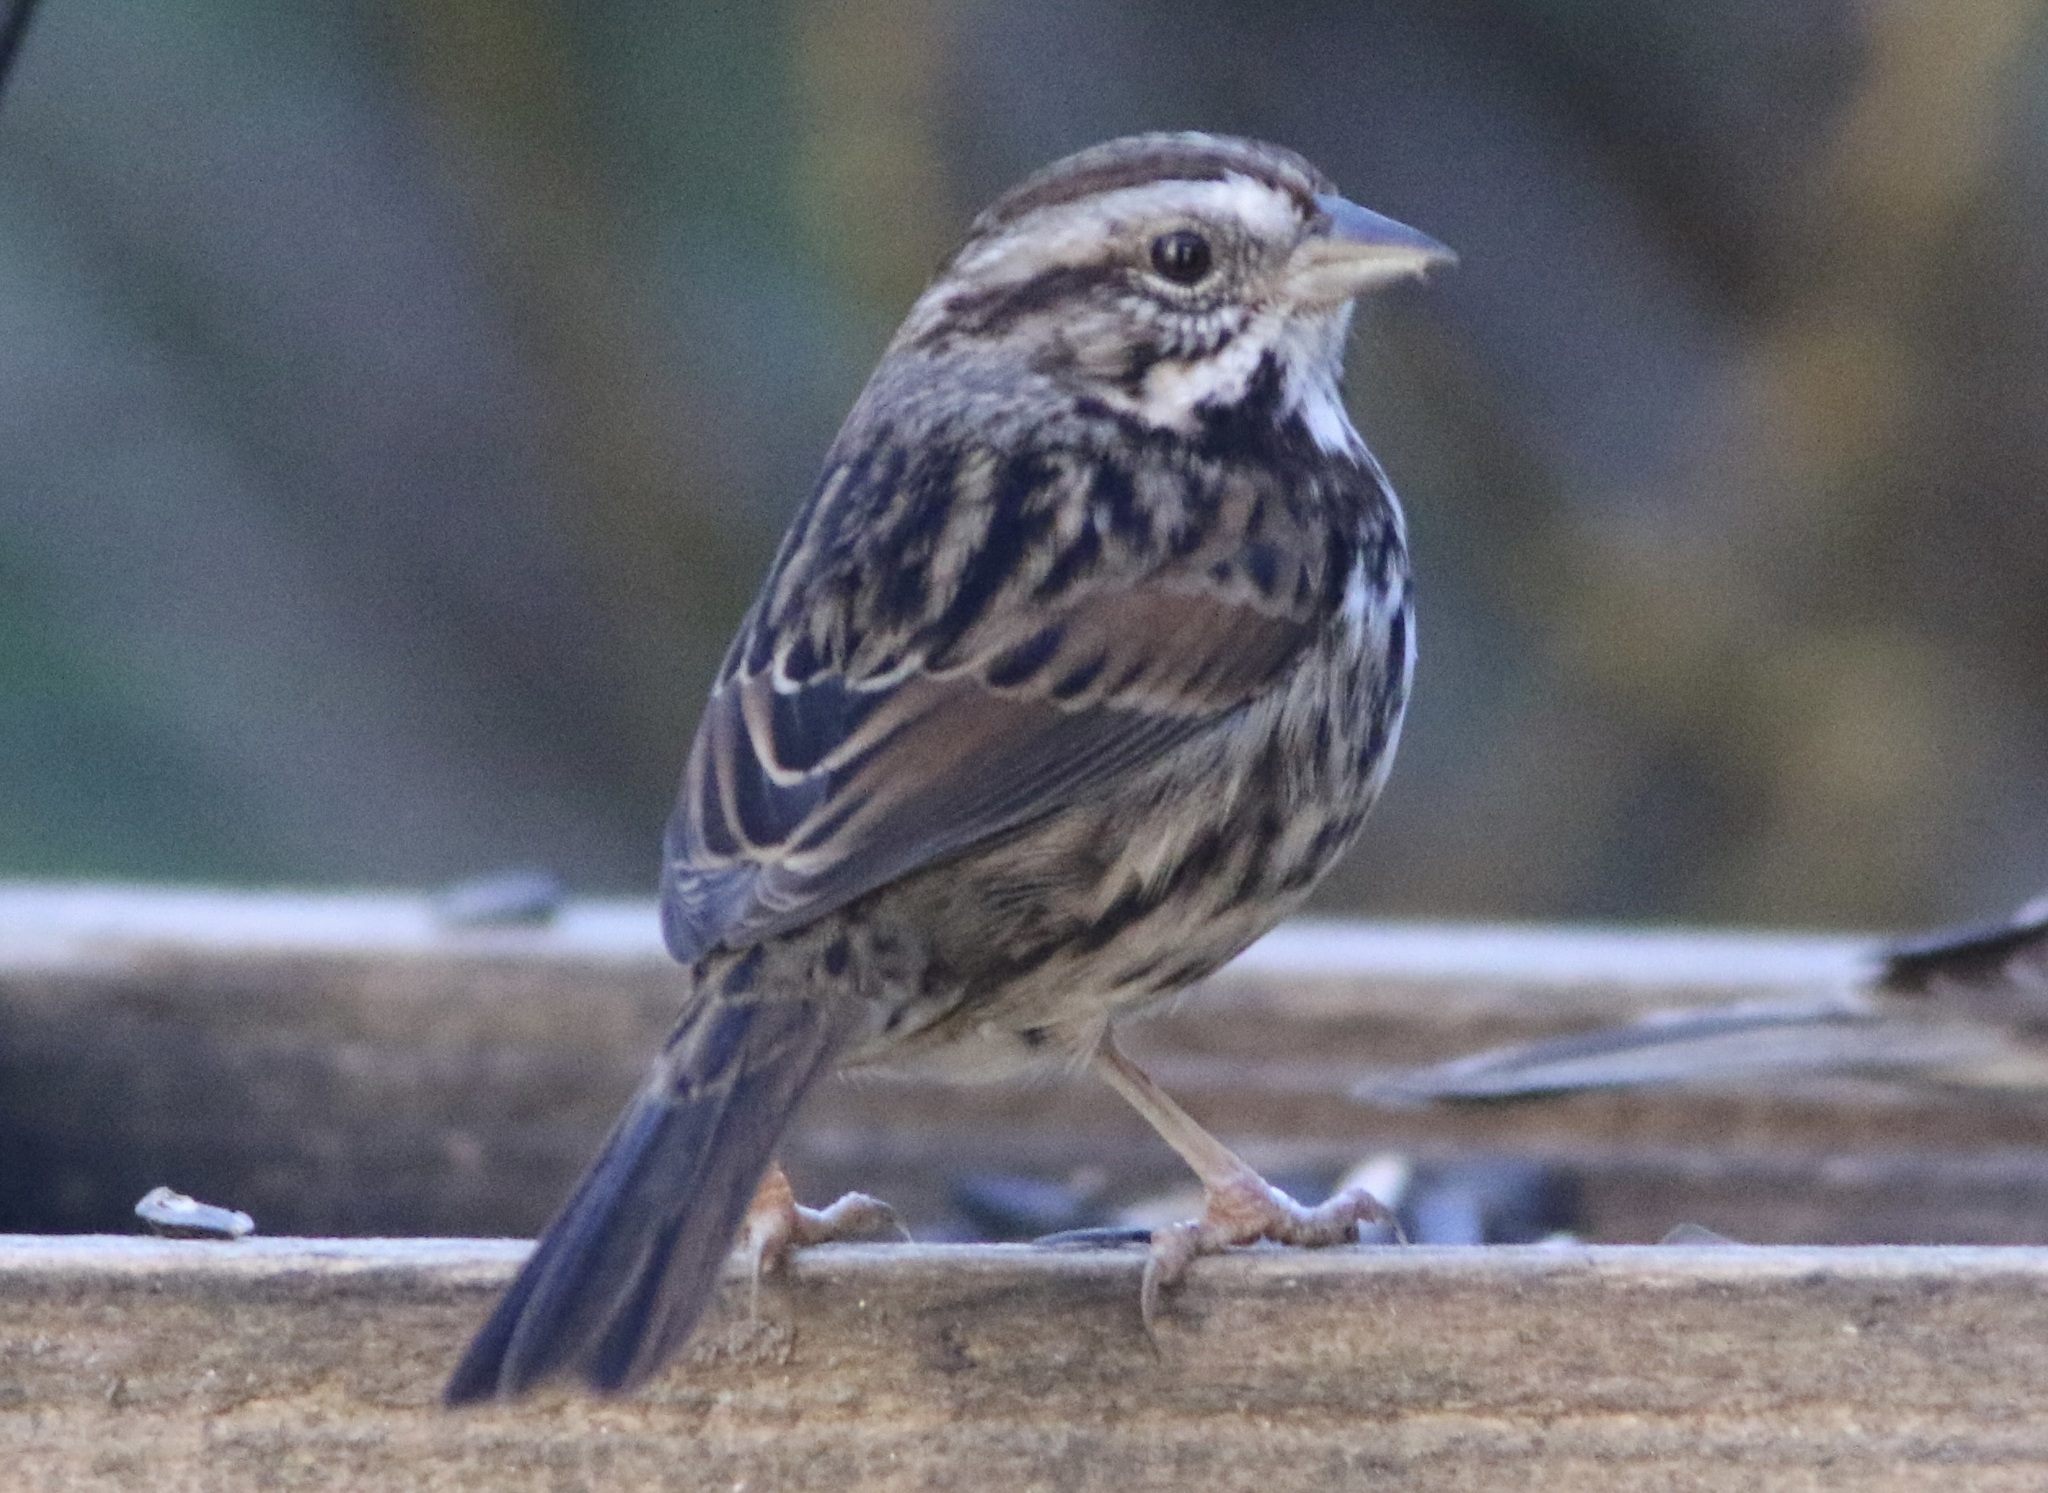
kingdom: Animalia
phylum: Chordata
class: Aves
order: Passeriformes
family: Passerellidae
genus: Melospiza
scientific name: Melospiza melodia
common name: Song sparrow
